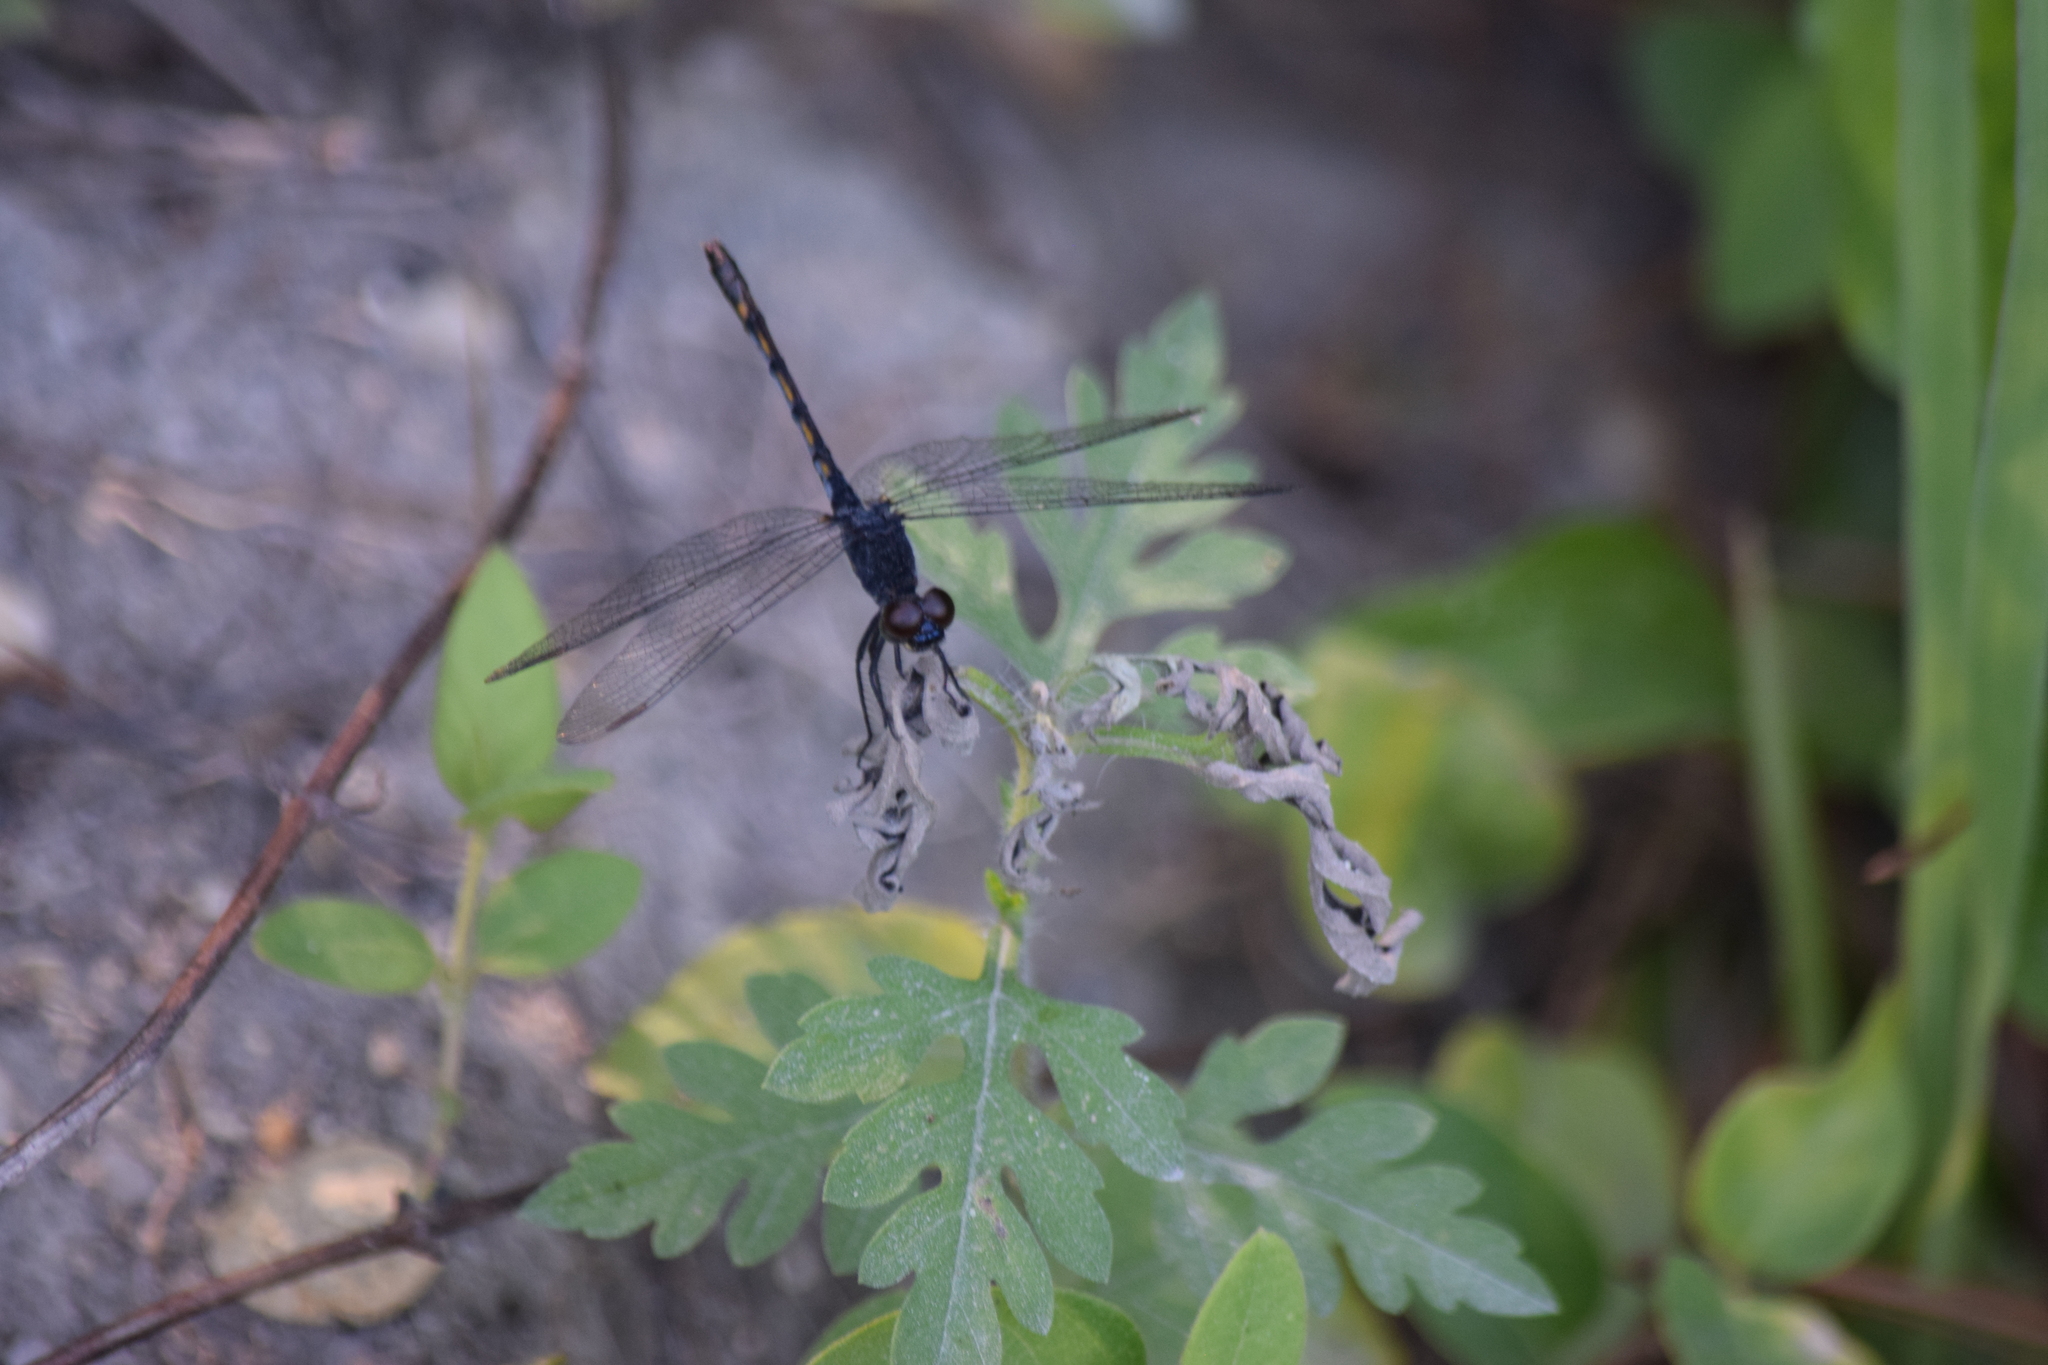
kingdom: Animalia
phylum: Arthropoda
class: Insecta
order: Odonata
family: Libellulidae
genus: Erythrodiplax
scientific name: Erythrodiplax berenice
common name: Seaside dragonlet
